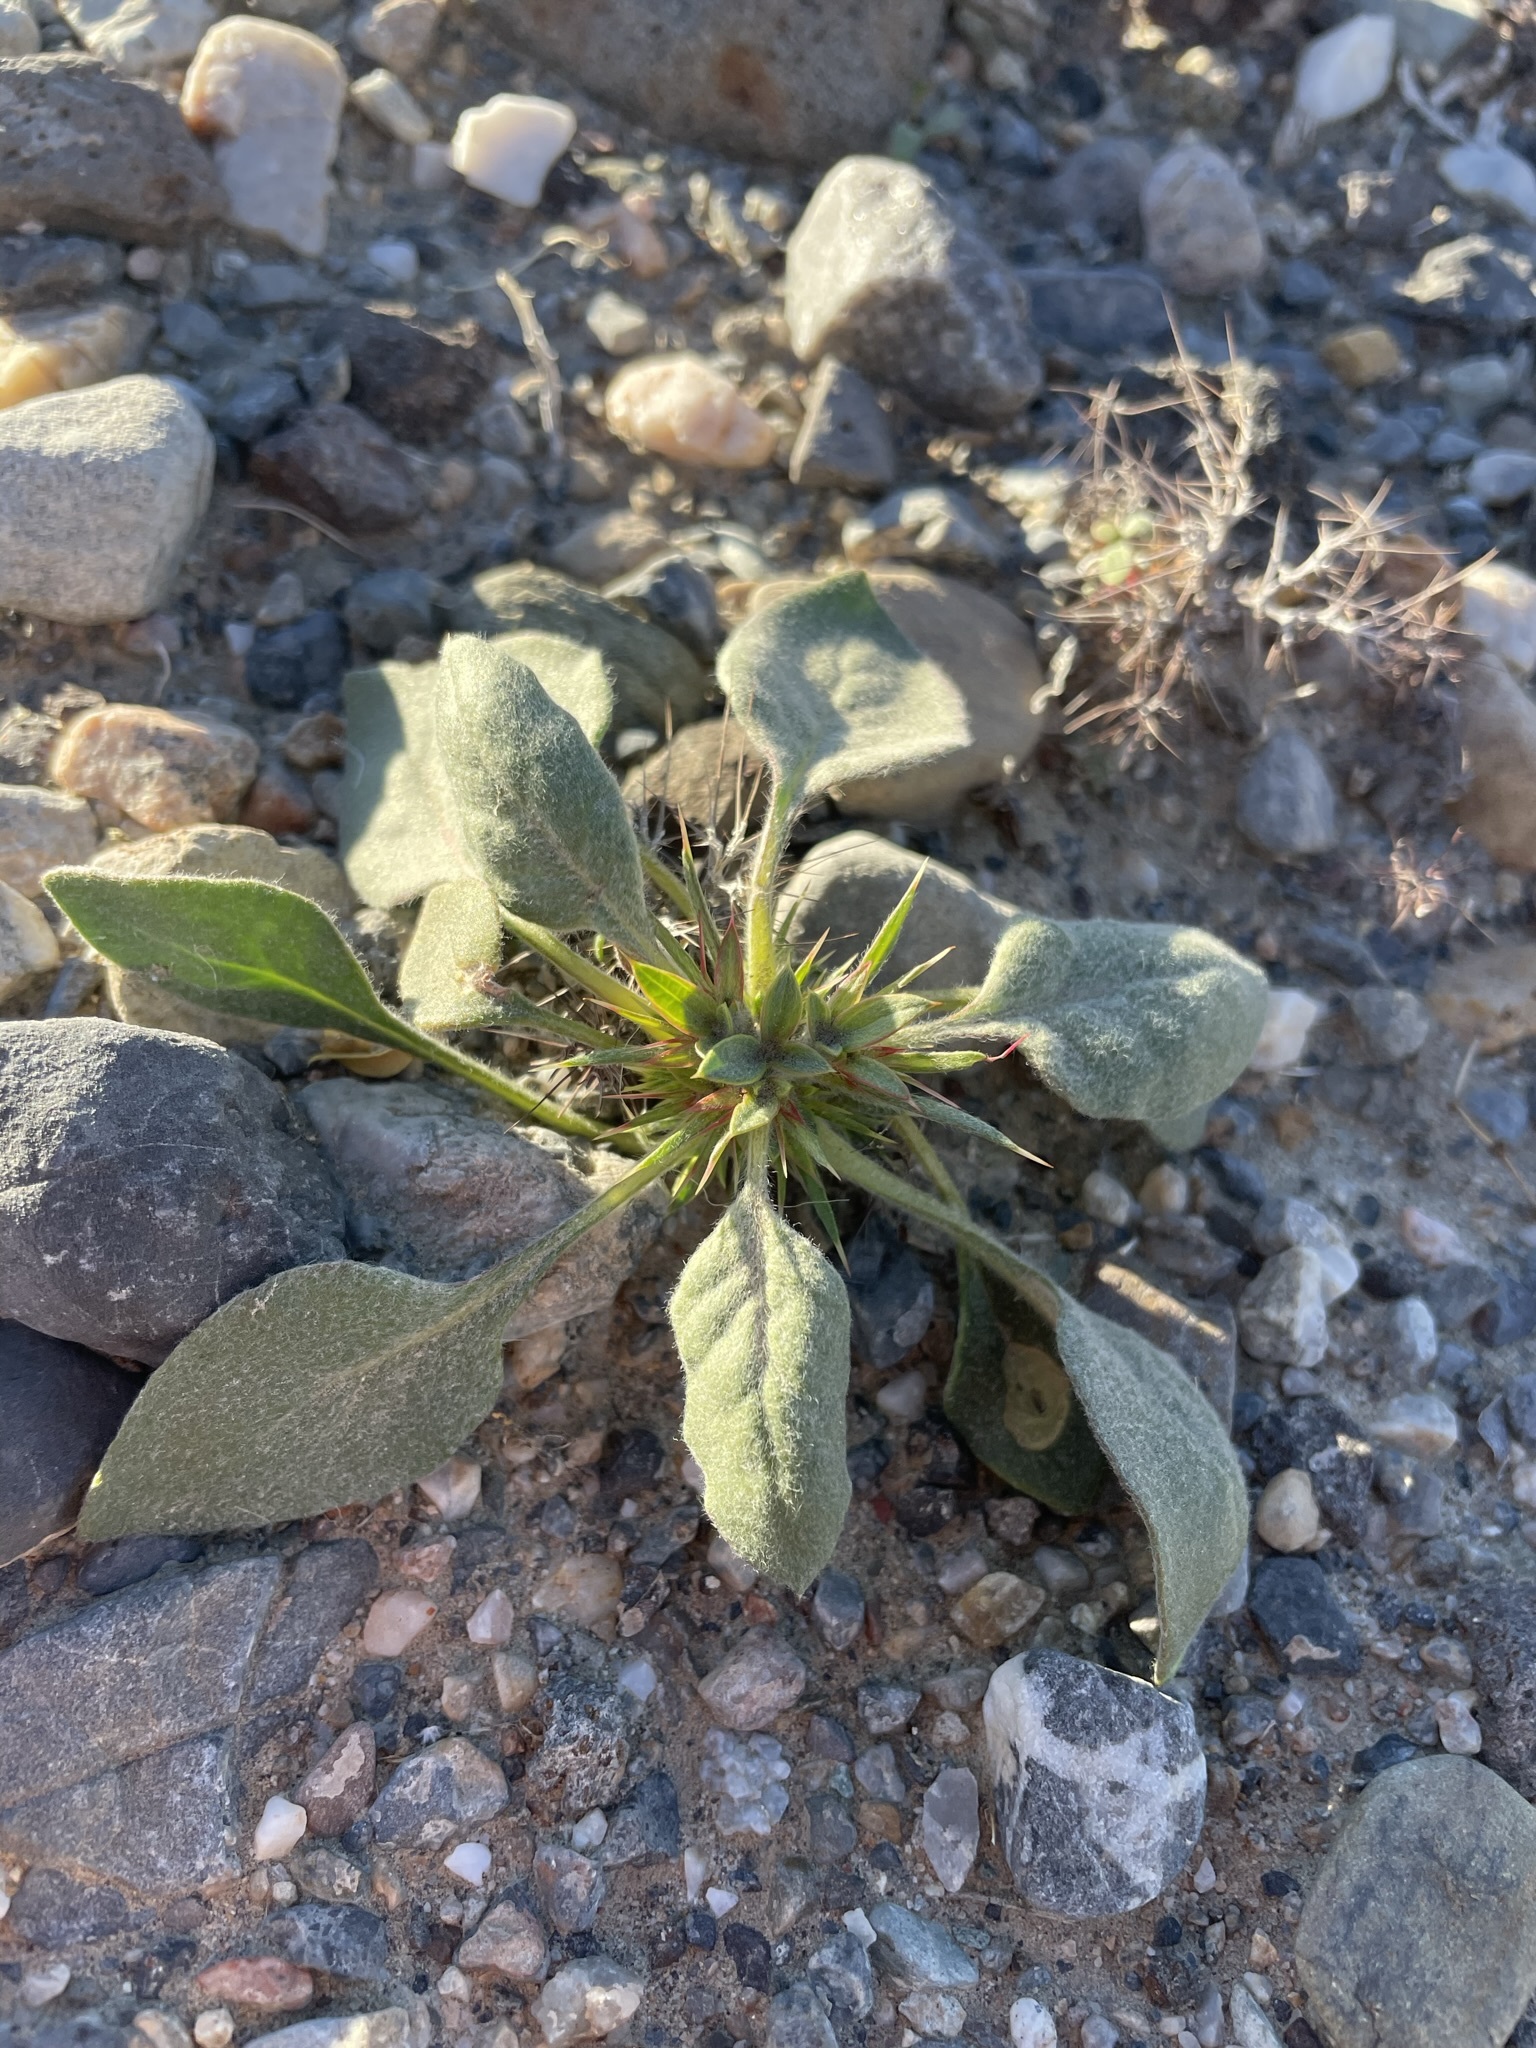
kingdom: Plantae
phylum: Tracheophyta
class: Magnoliopsida
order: Caryophyllales
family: Polygonaceae
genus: Chorizanthe
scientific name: Chorizanthe rigida
